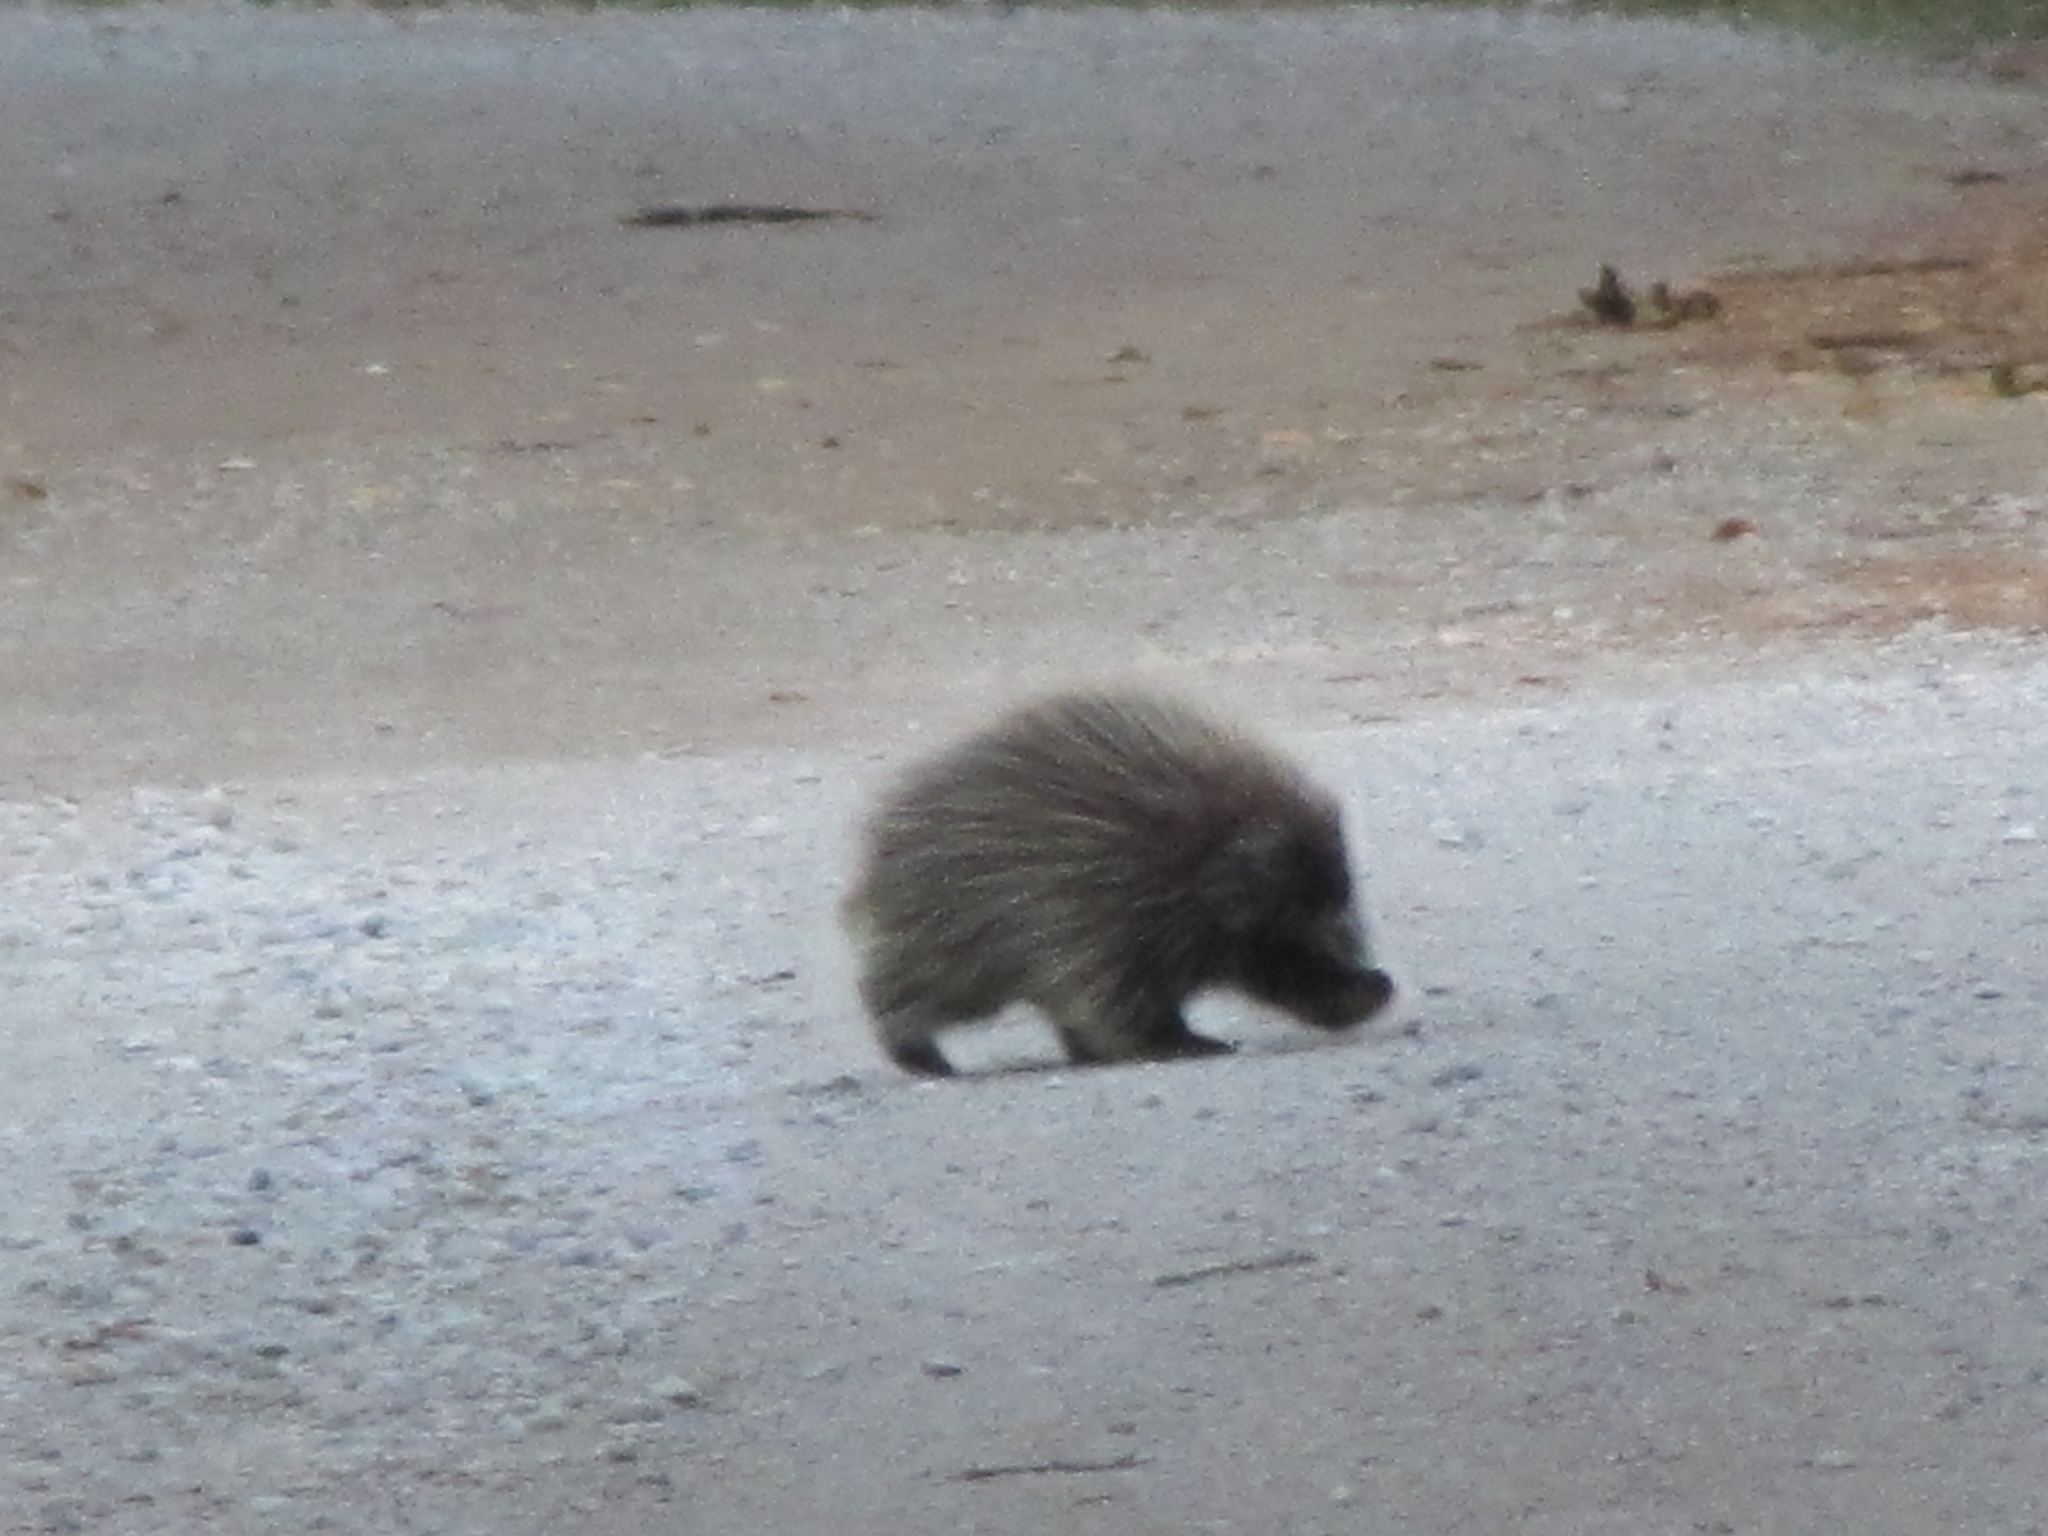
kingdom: Animalia
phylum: Chordata
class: Mammalia
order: Rodentia
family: Erethizontidae
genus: Erethizon
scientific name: Erethizon dorsatus
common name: North american porcupine
